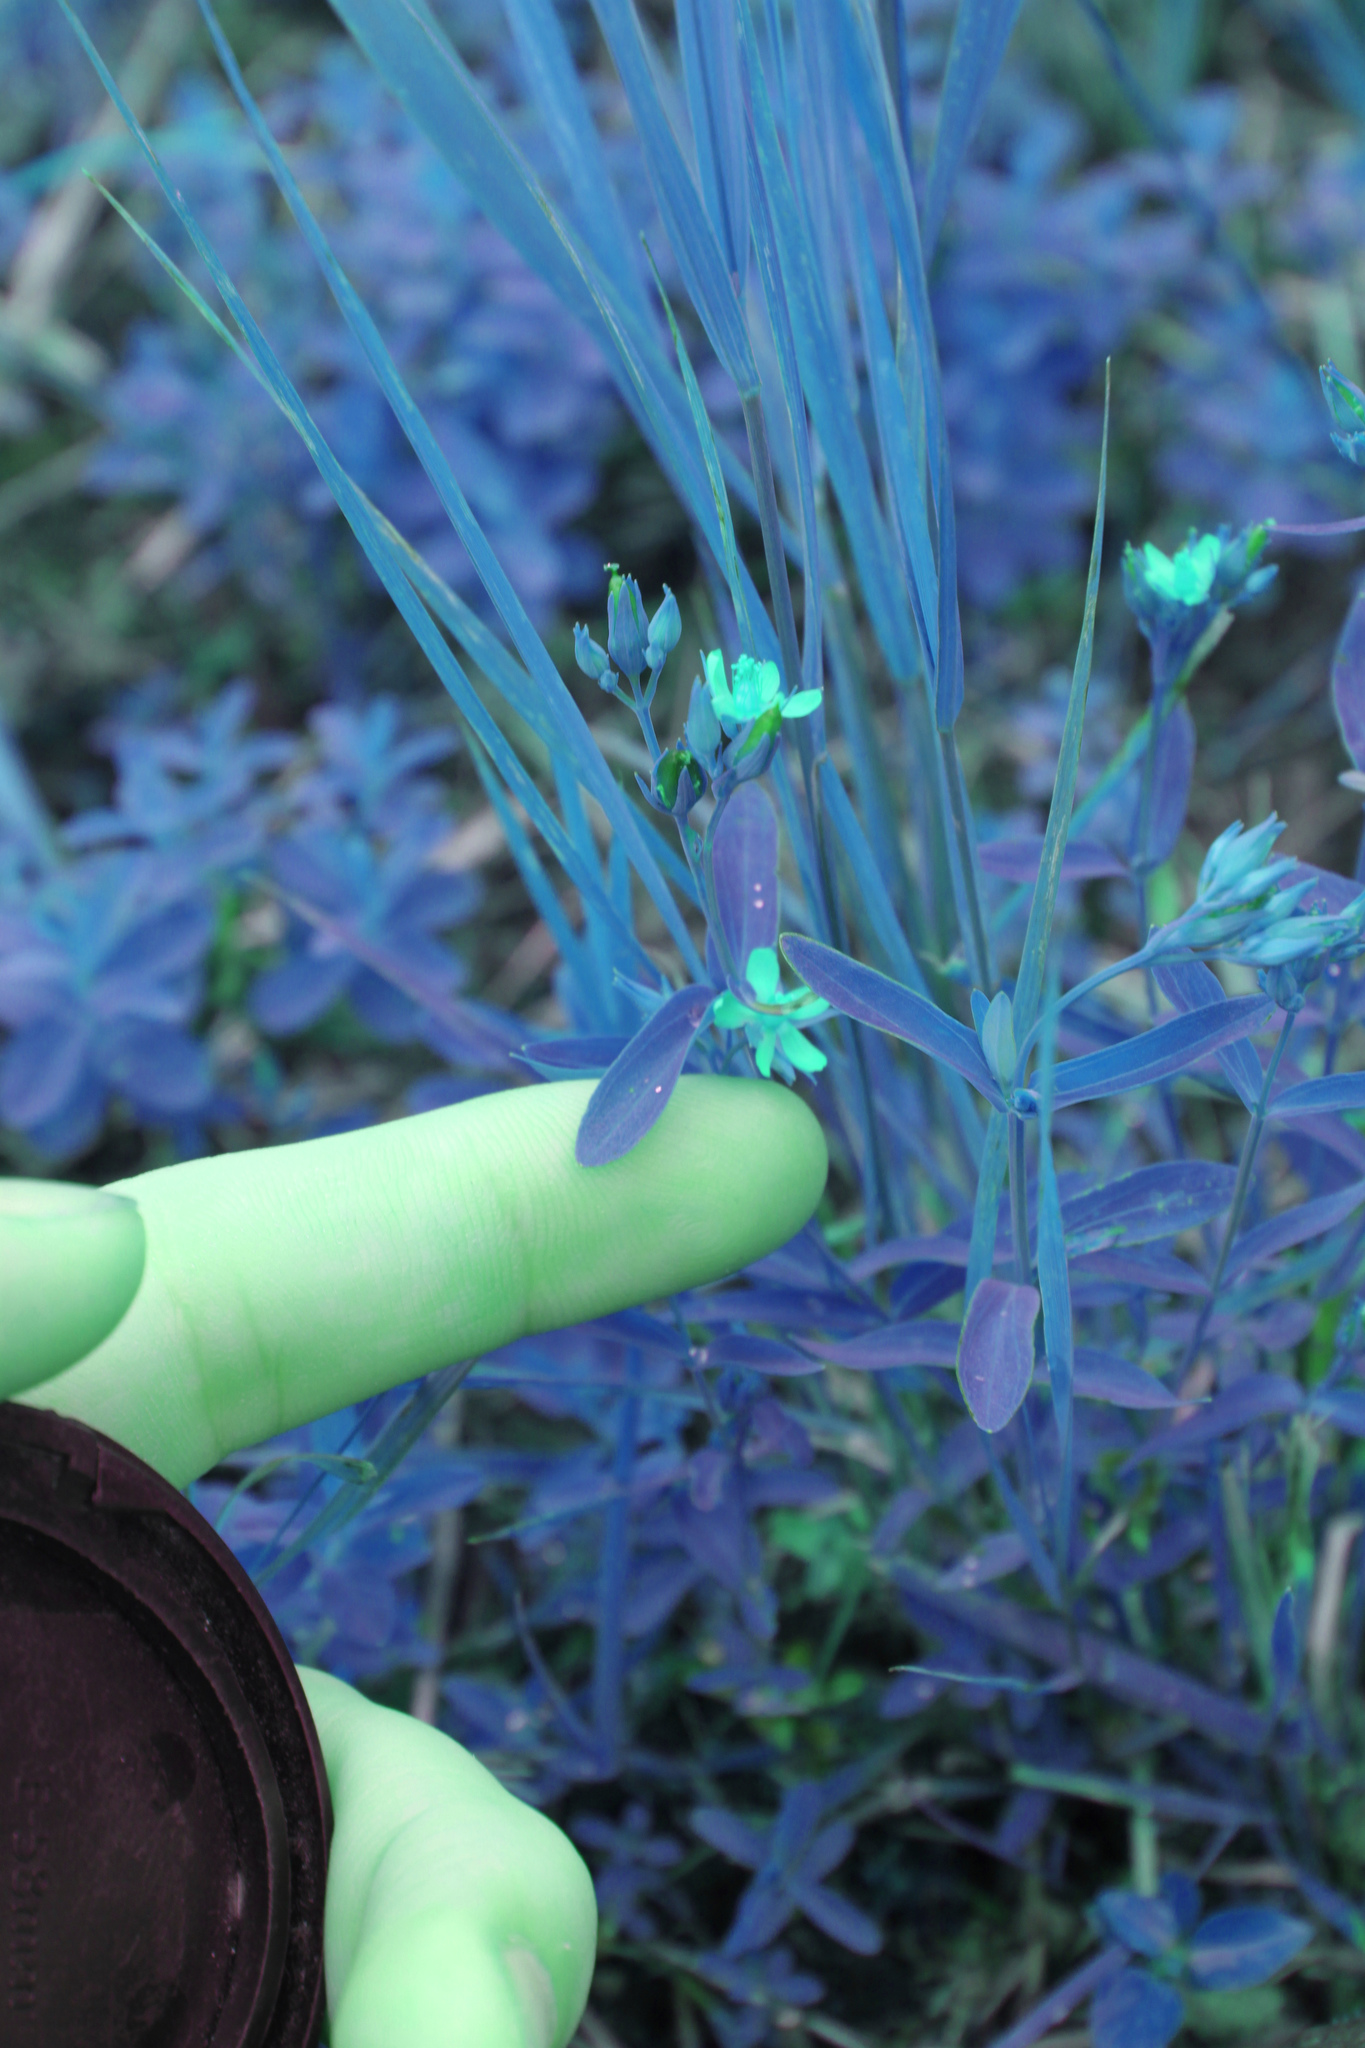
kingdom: Plantae
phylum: Tracheophyta
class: Magnoliopsida
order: Malpighiales
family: Hypericaceae
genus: Hypericum
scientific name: Hypericum majus
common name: Greater canadian st. john's-wort
